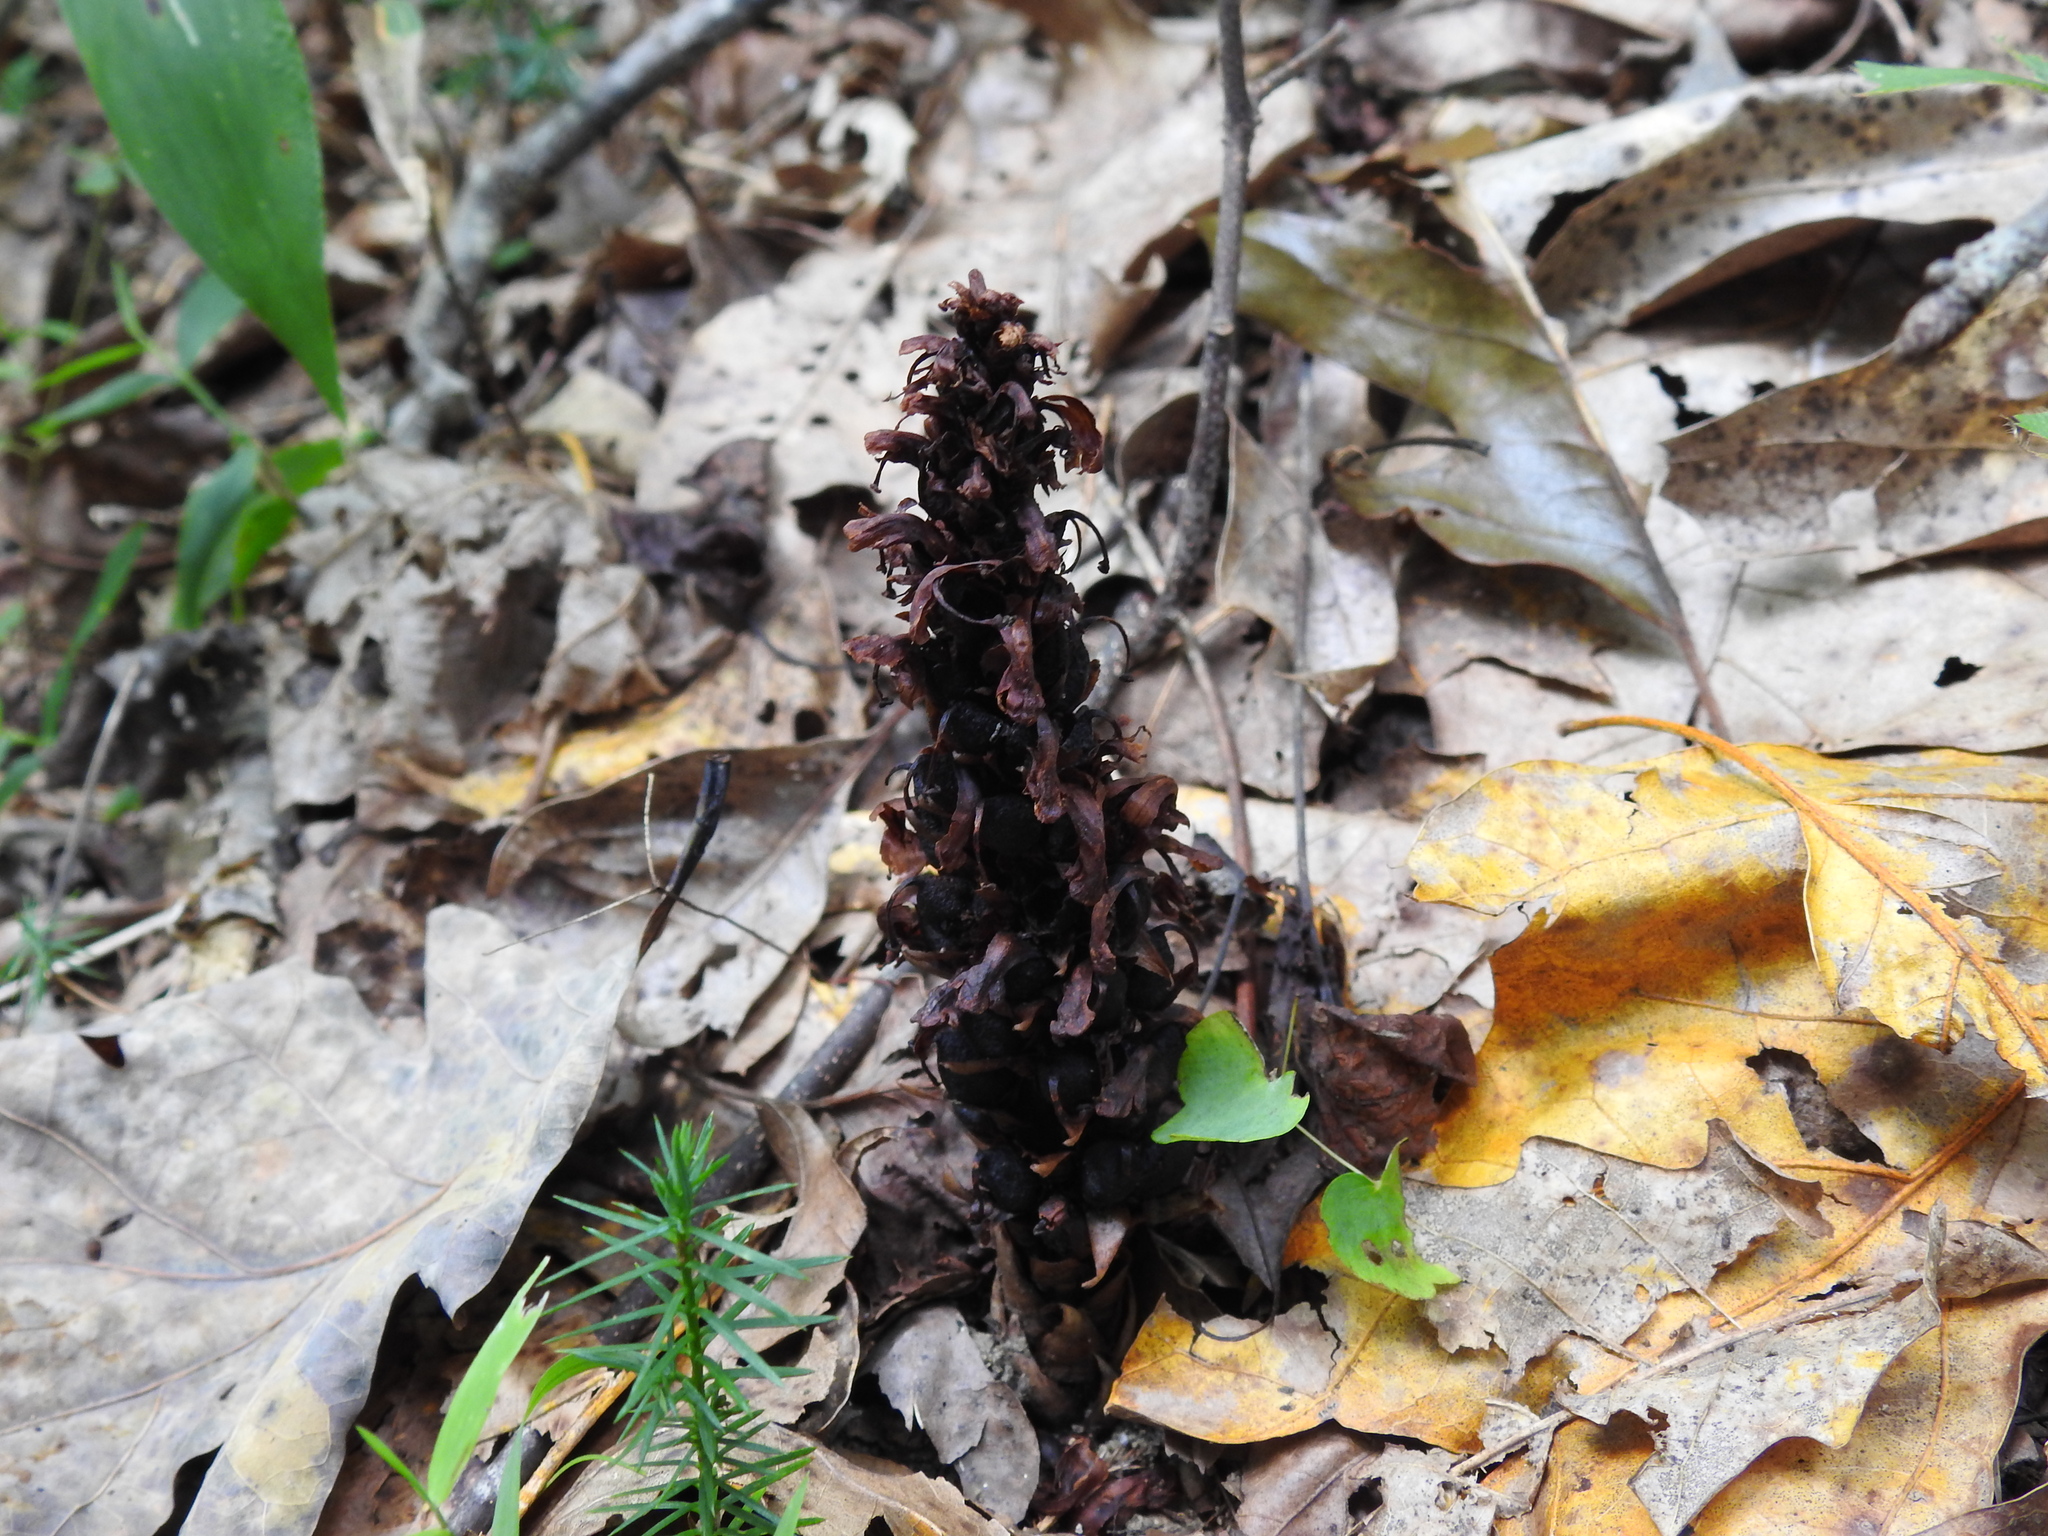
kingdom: Plantae
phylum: Tracheophyta
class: Magnoliopsida
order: Lamiales
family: Orobanchaceae
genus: Conopholis
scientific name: Conopholis americana
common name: American cancer-root
